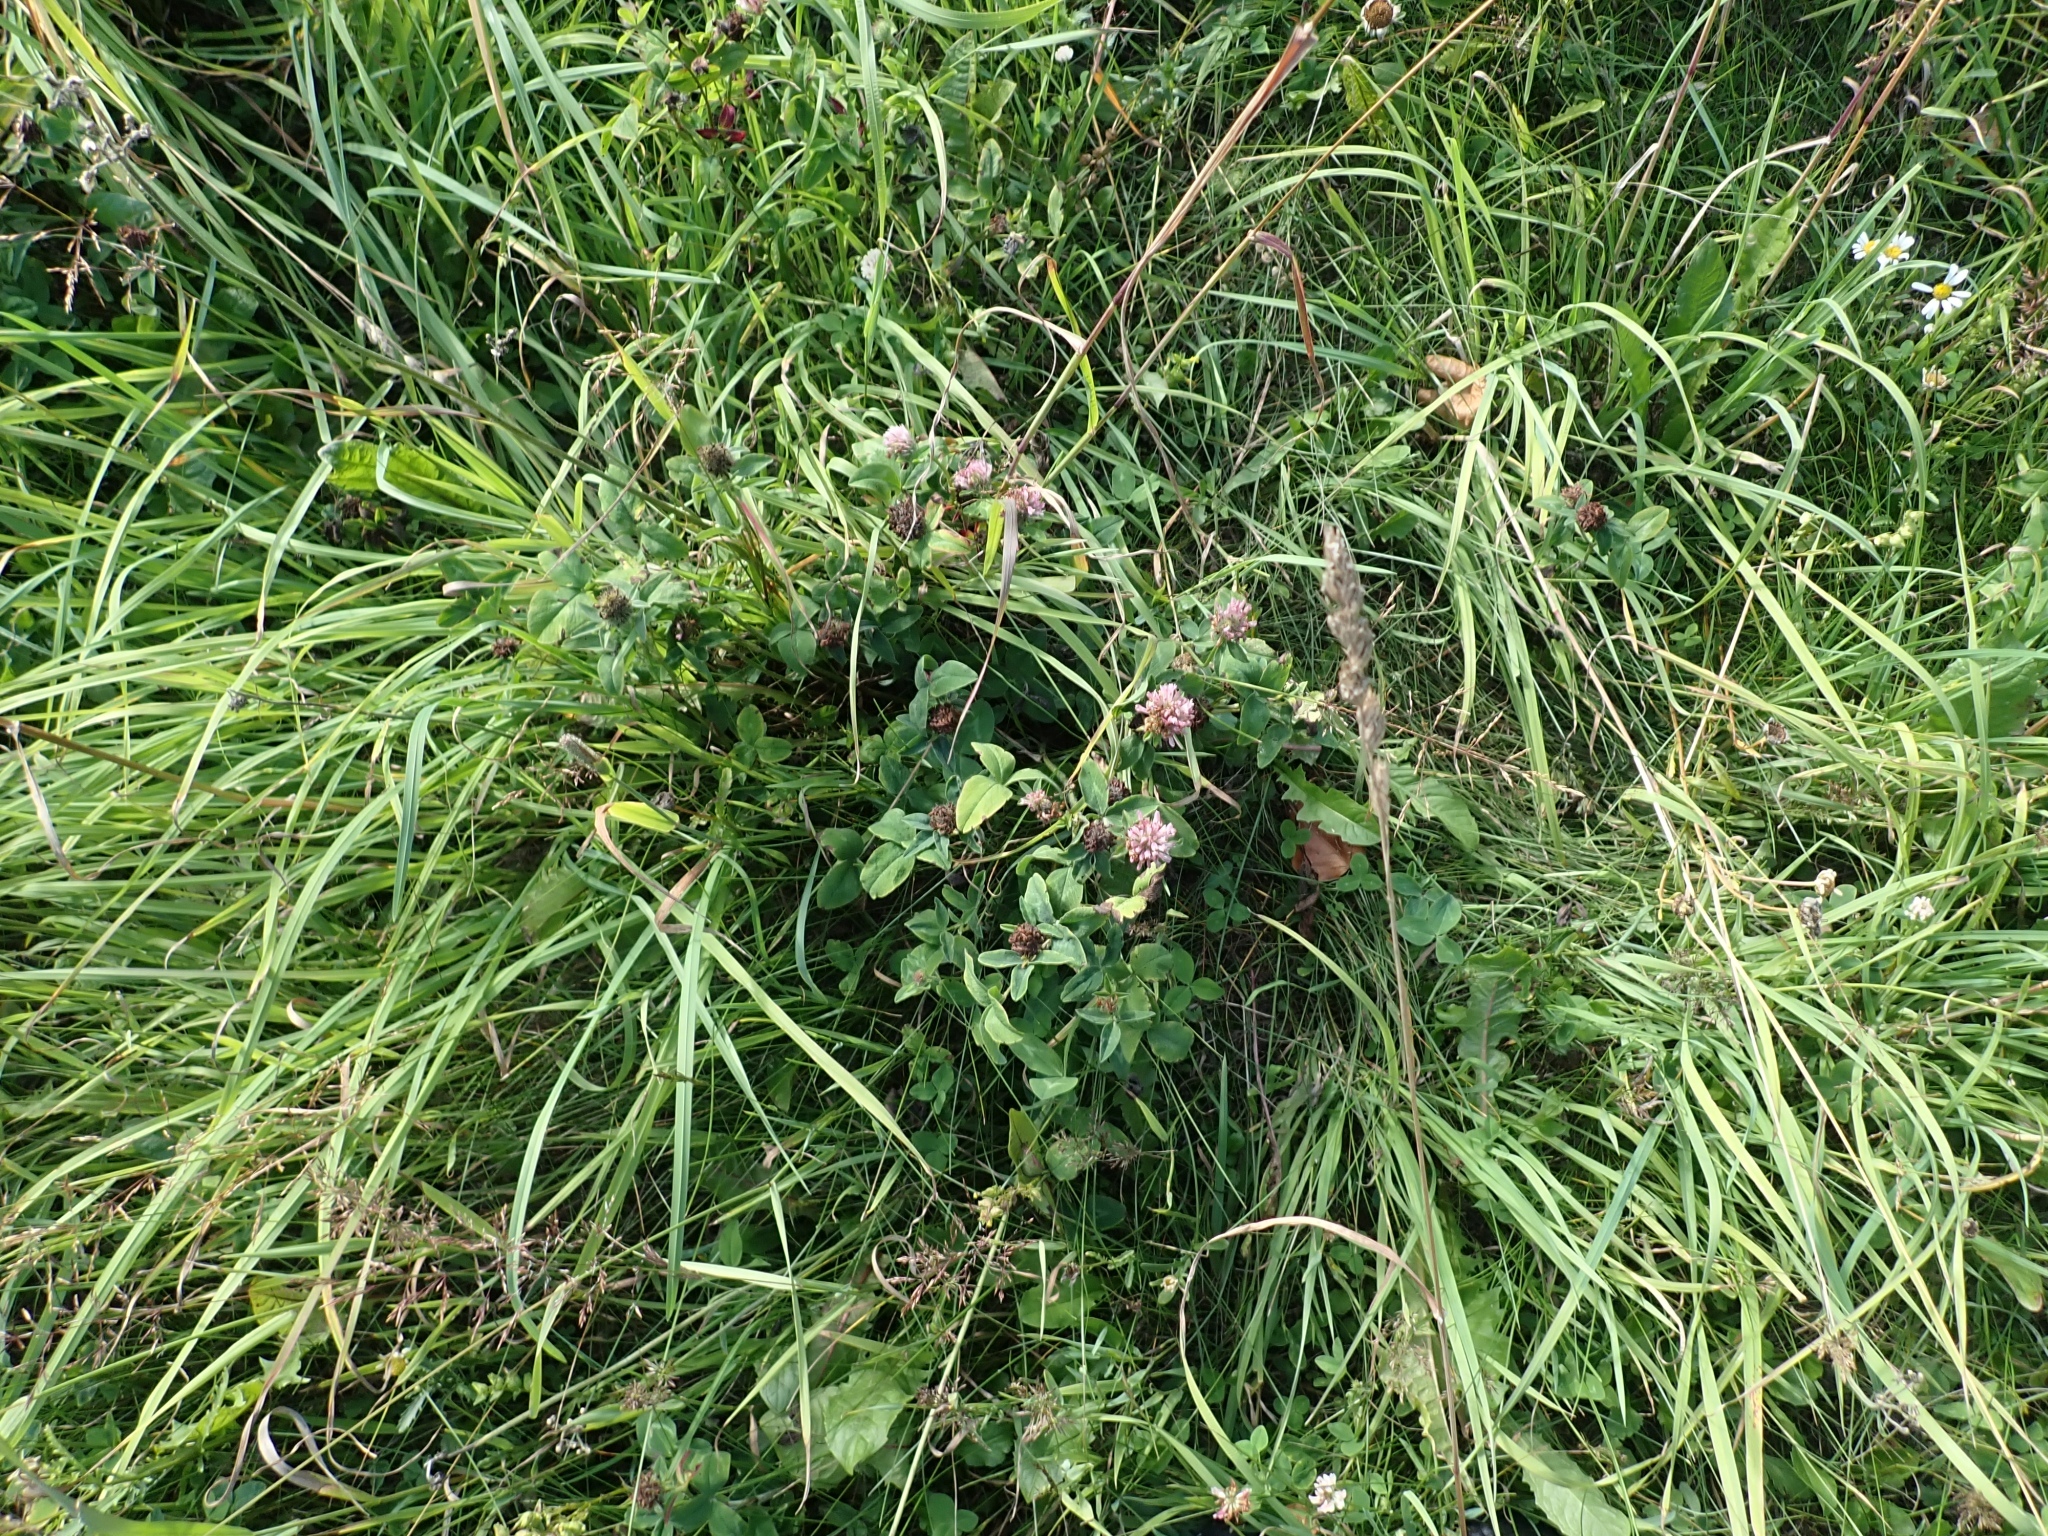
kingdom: Plantae
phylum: Tracheophyta
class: Magnoliopsida
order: Fabales
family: Fabaceae
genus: Trifolium
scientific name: Trifolium pratense
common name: Red clover
